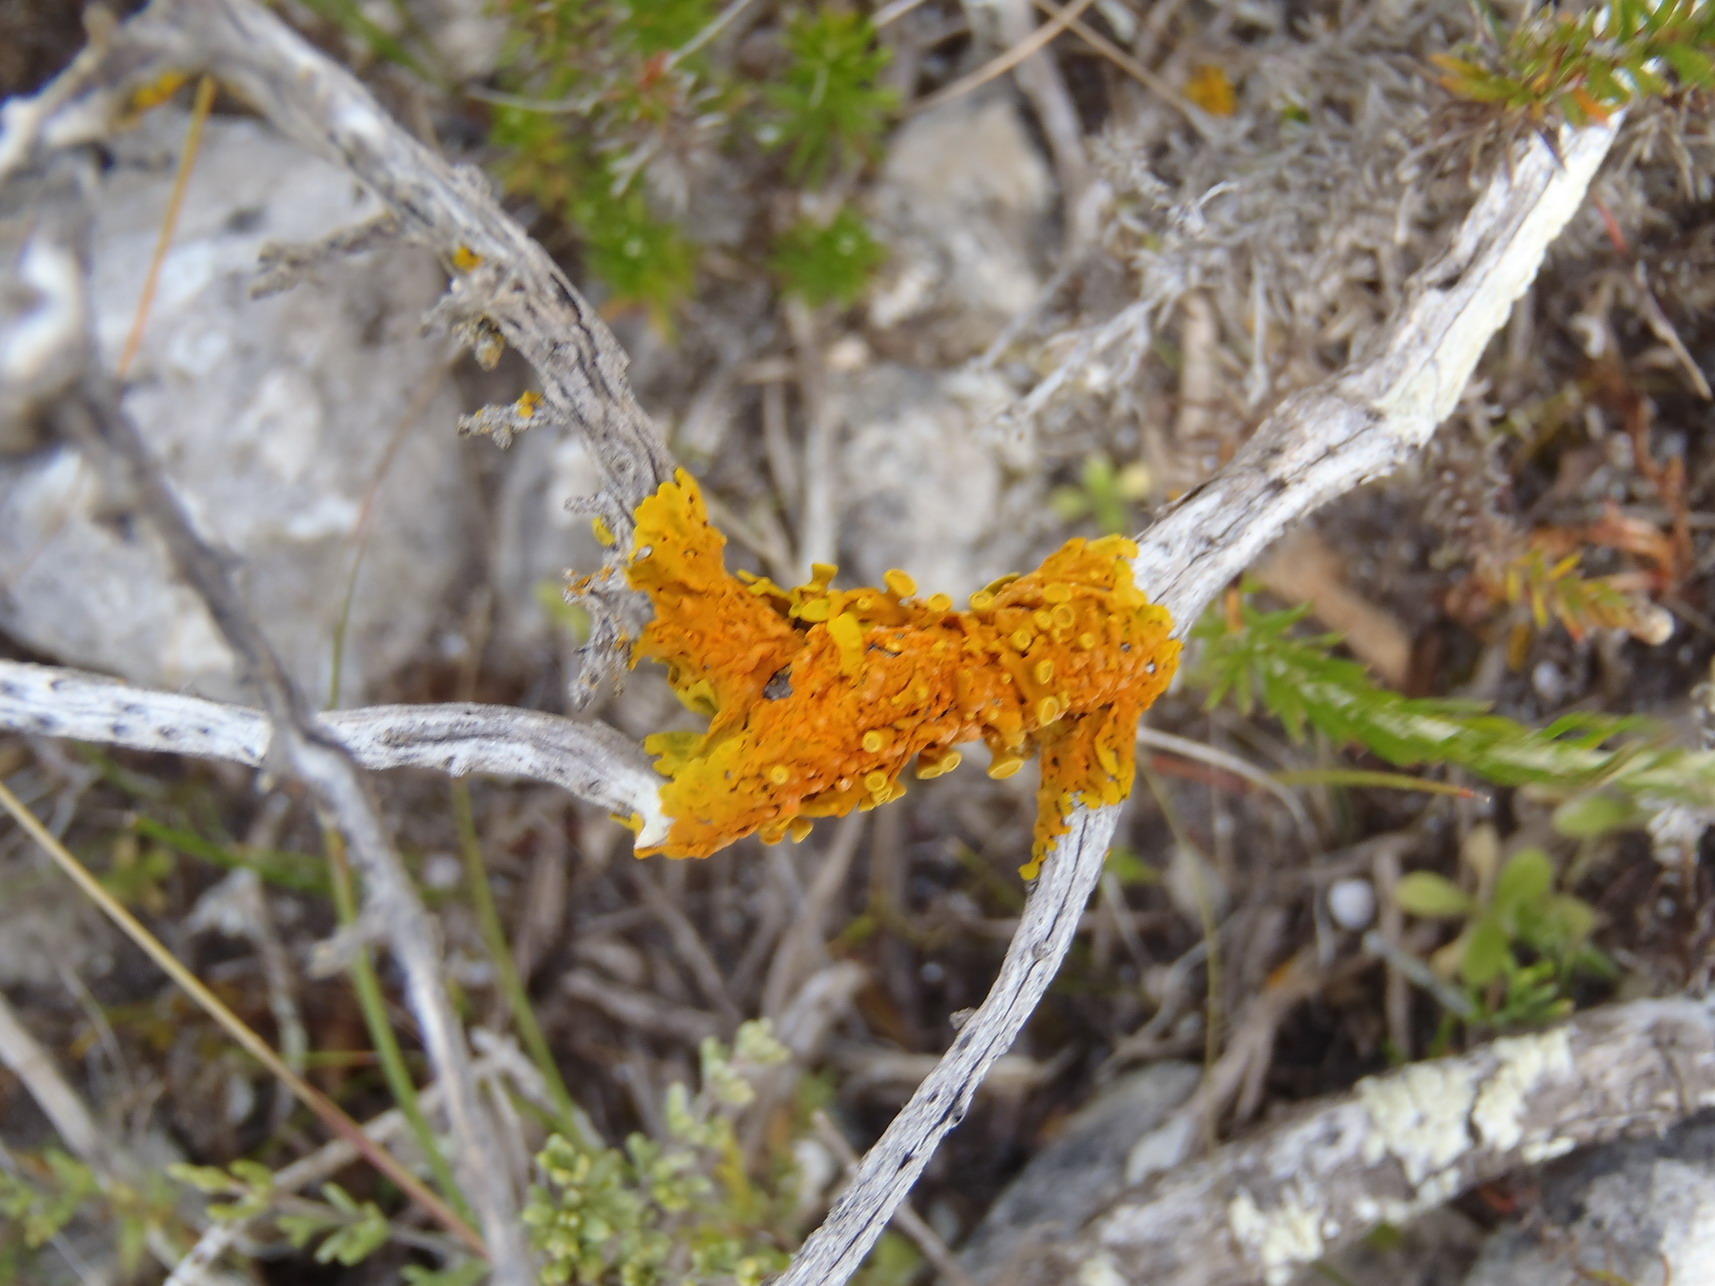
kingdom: Fungi
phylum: Ascomycota
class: Lecanoromycetes
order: Teloschistales
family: Teloschistaceae
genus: Dufourea
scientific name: Dufourea turbinata
